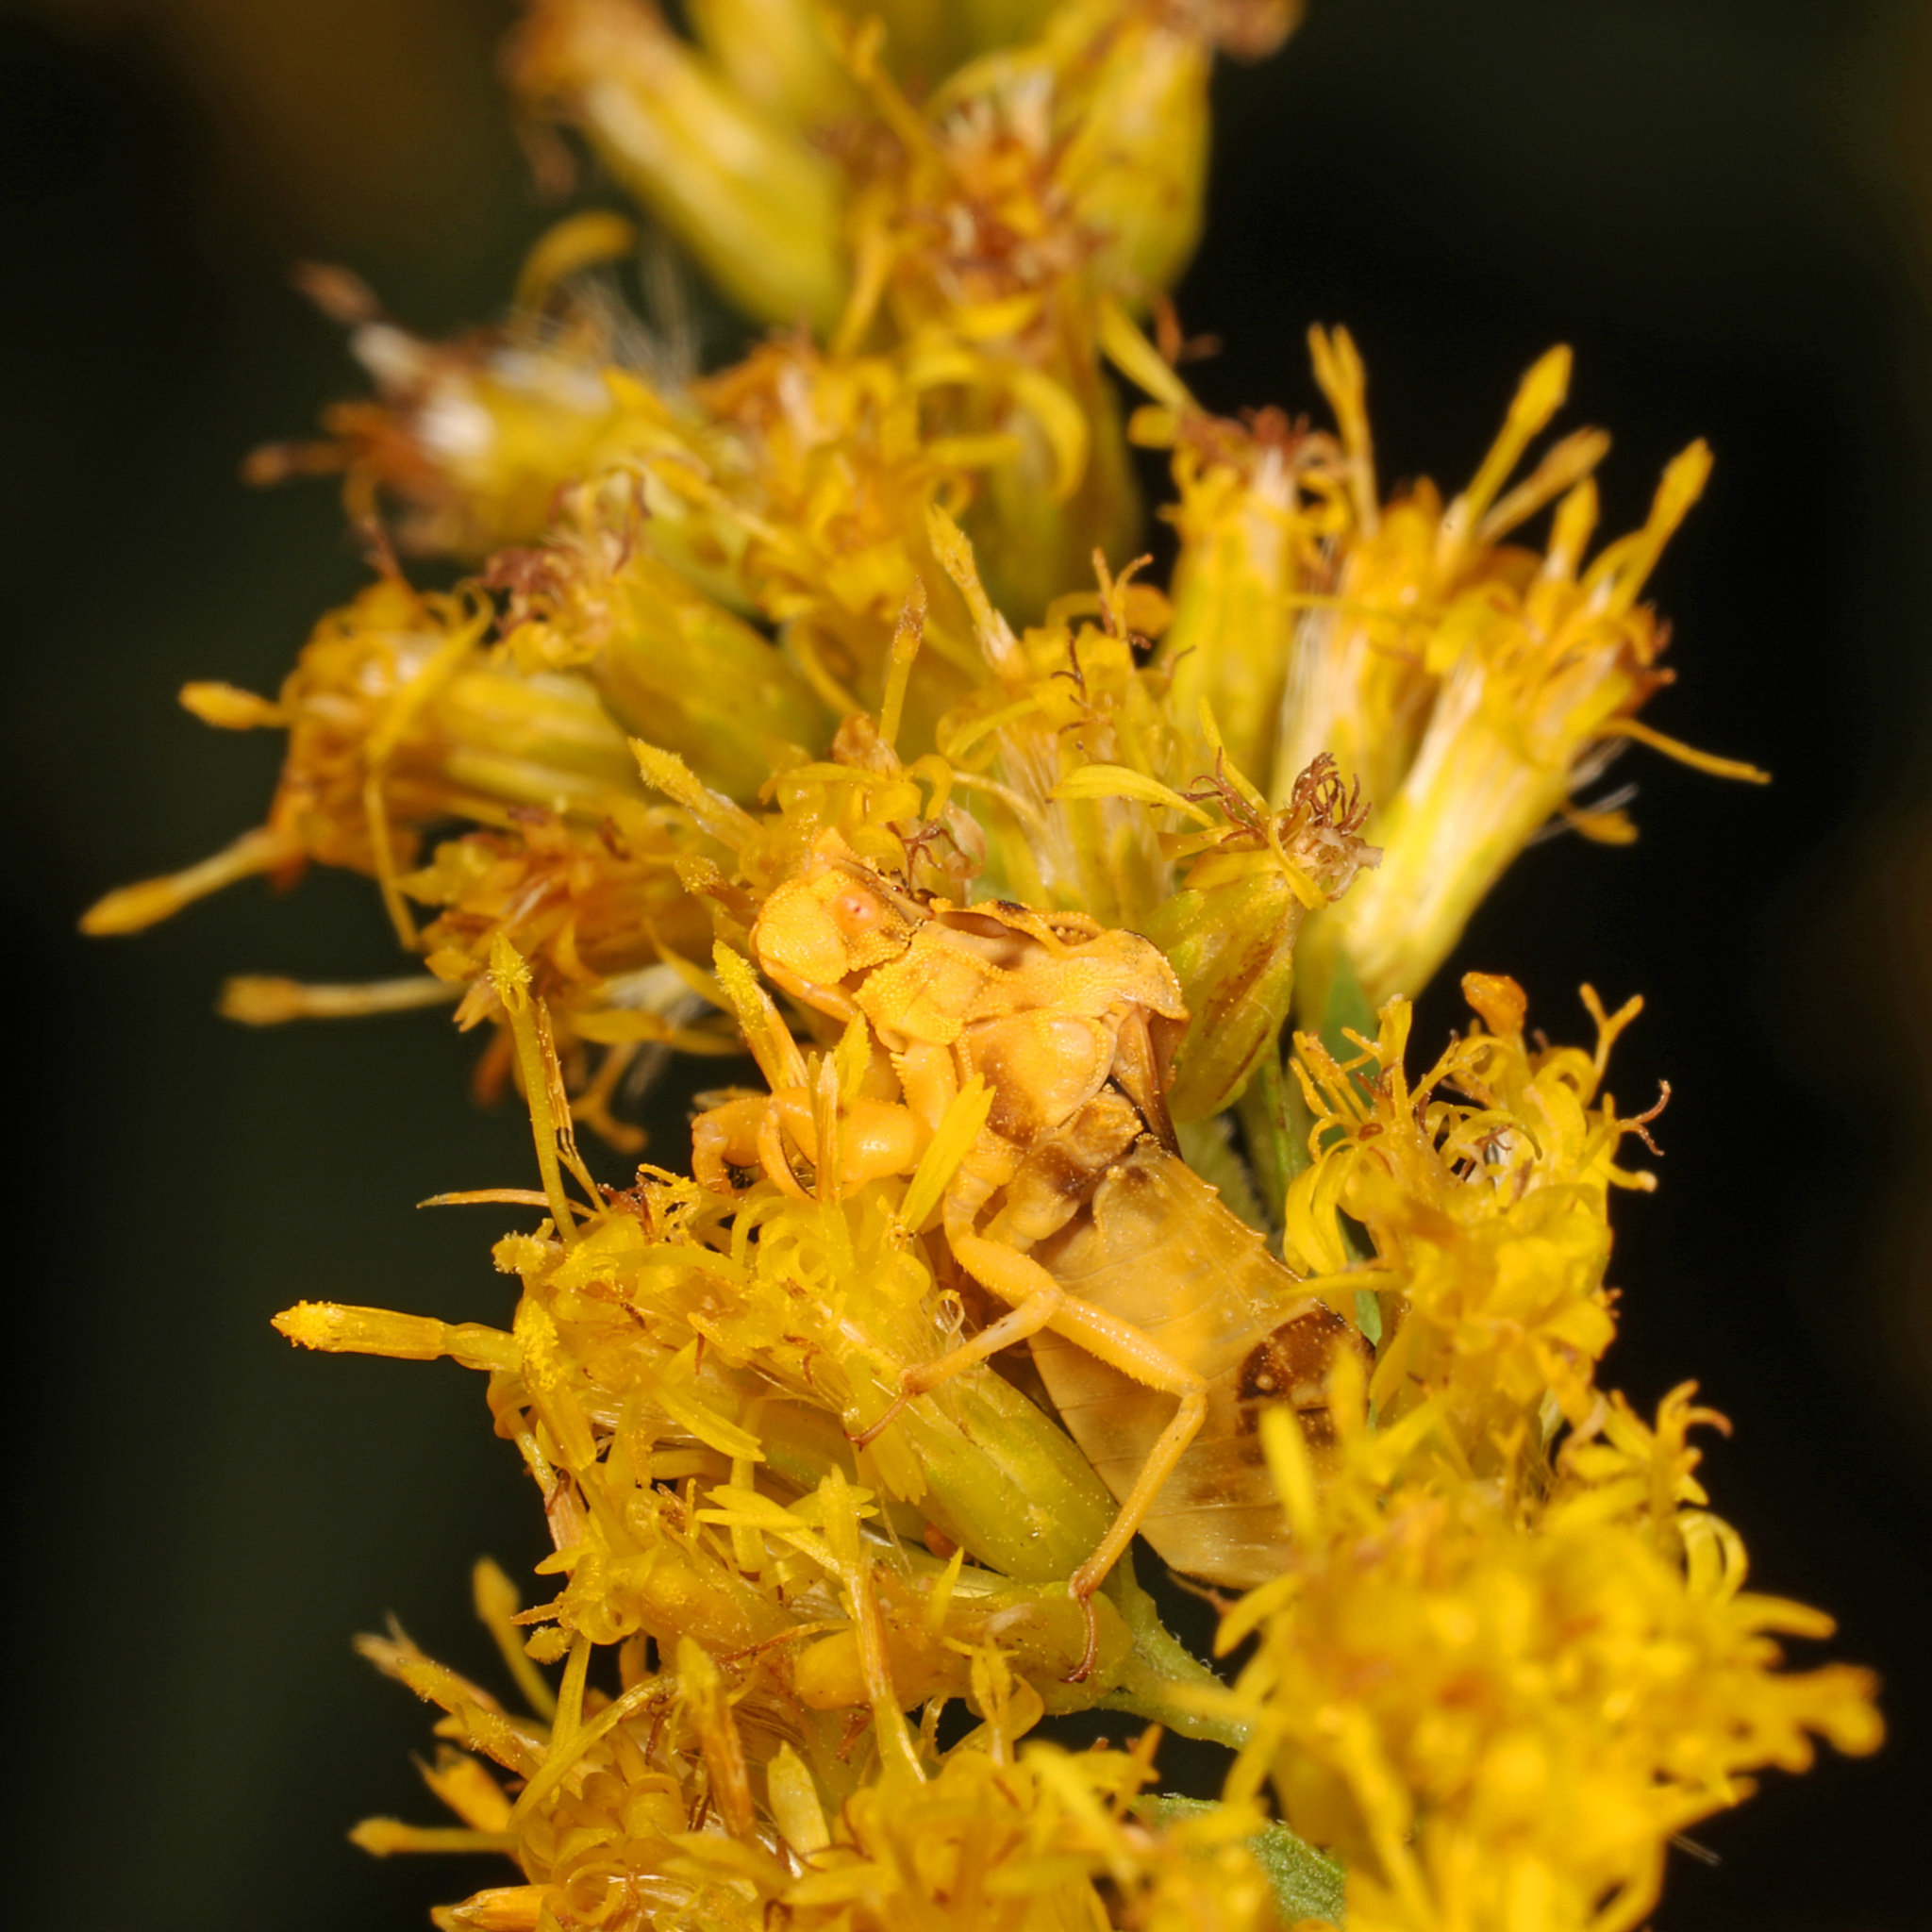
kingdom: Animalia
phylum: Arthropoda
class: Insecta
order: Hemiptera
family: Reduviidae
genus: Phymata
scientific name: Phymata fasciata
